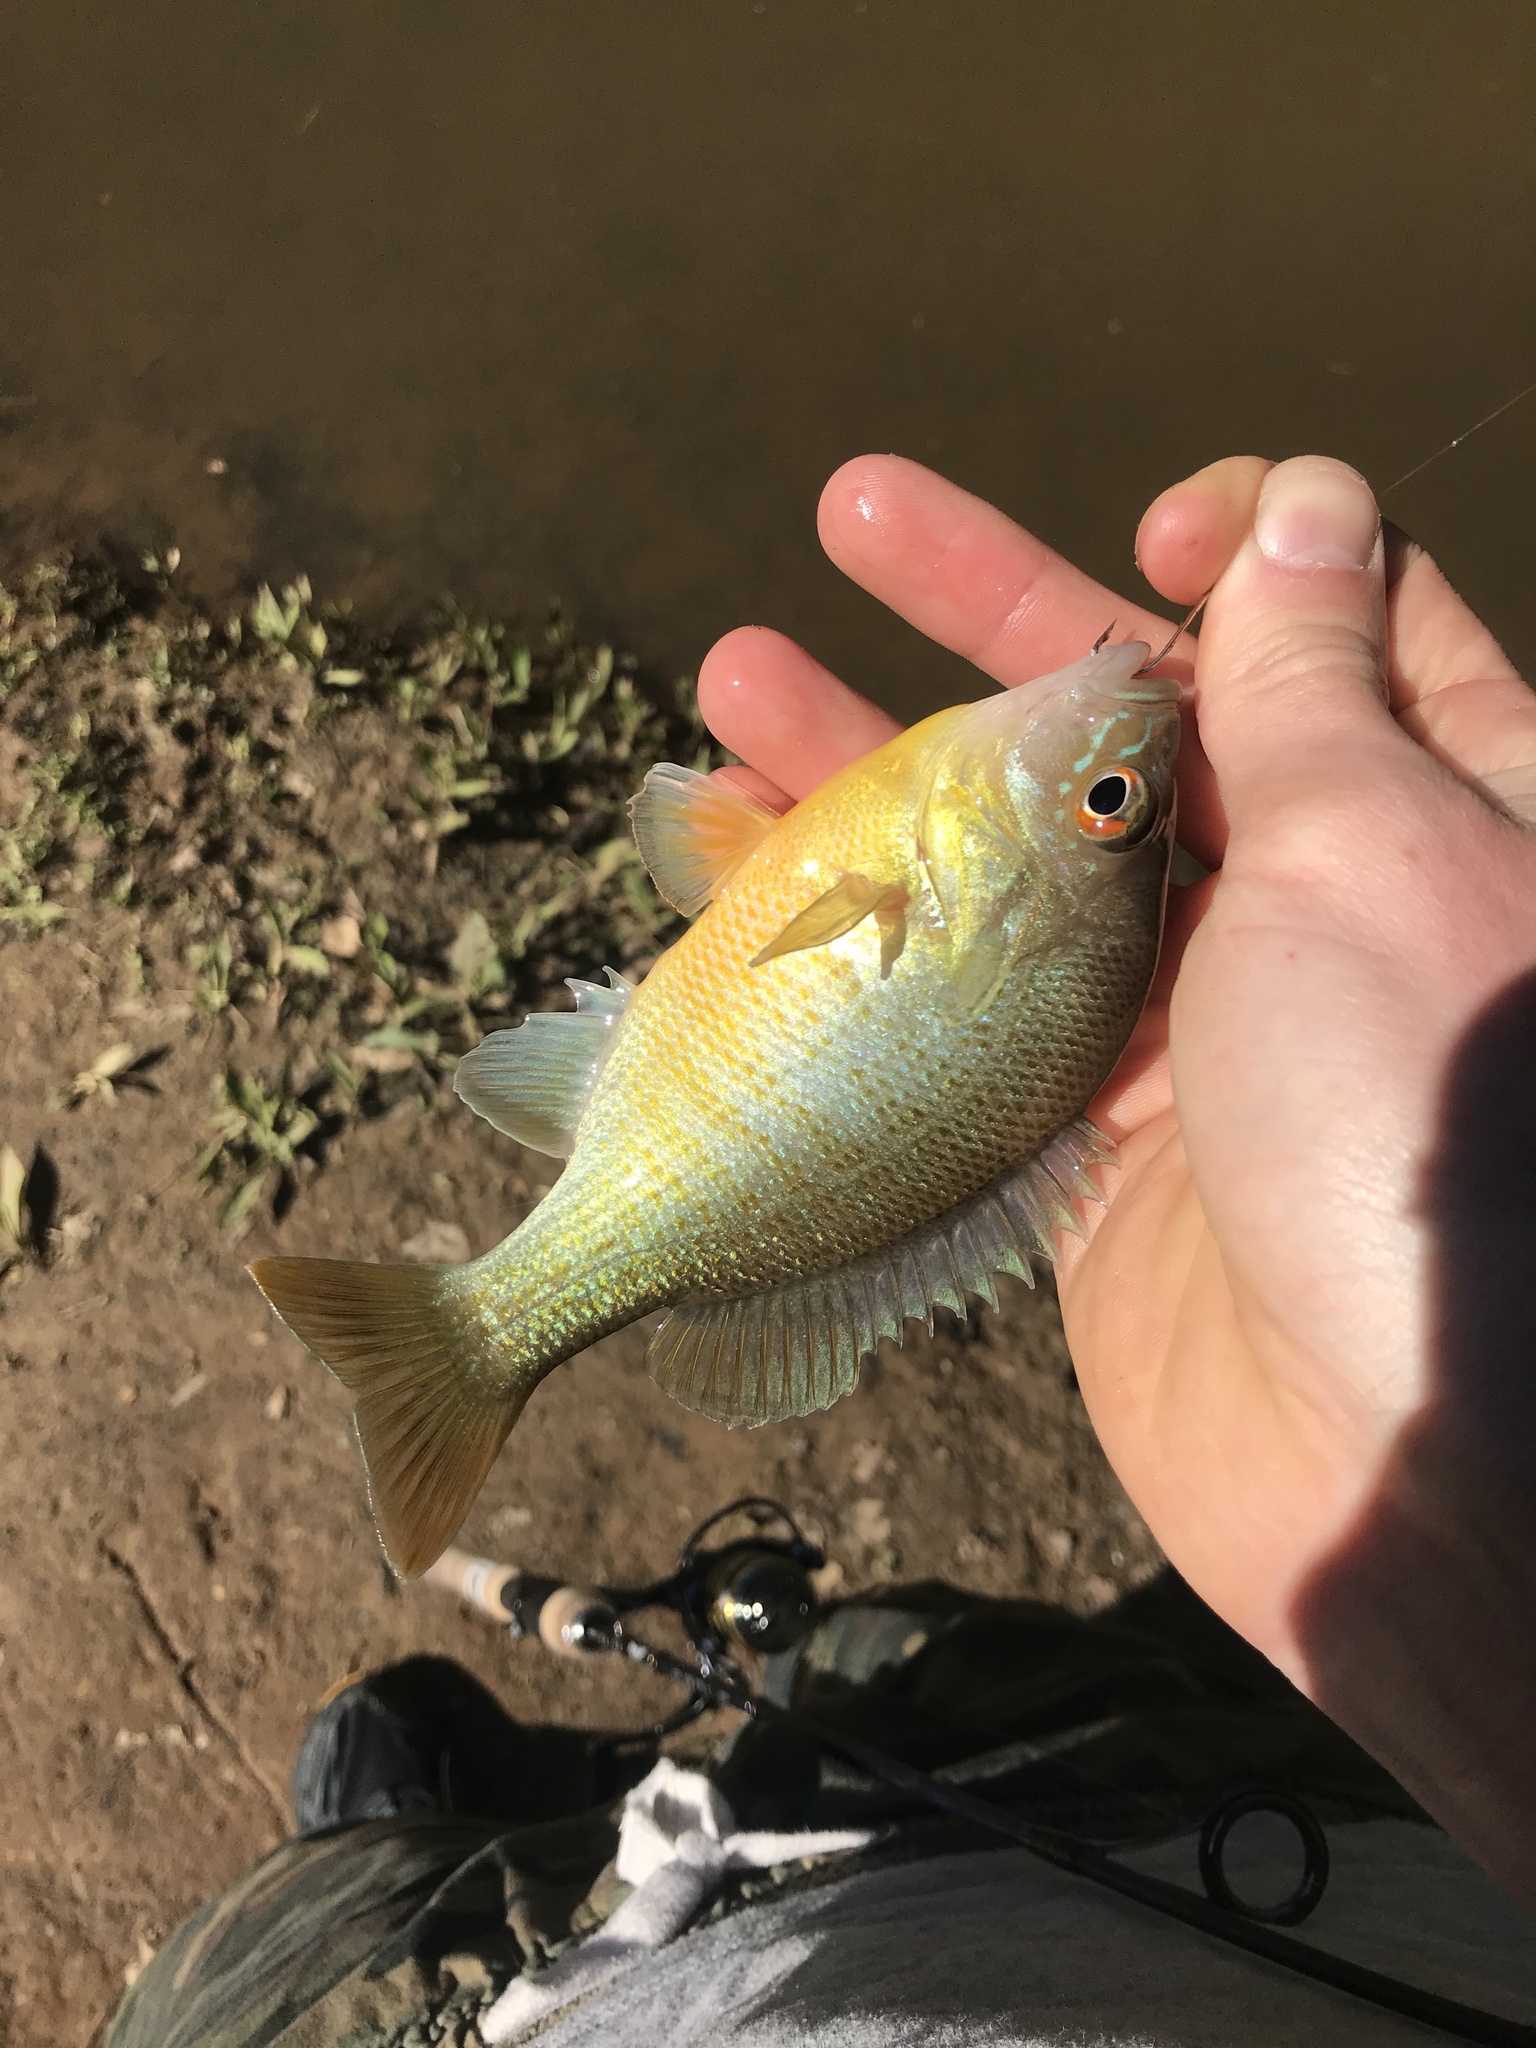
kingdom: Animalia
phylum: Chordata
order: Perciformes
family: Centrarchidae
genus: Lepomis
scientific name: Lepomis auritus
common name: Redbreast sunfish
